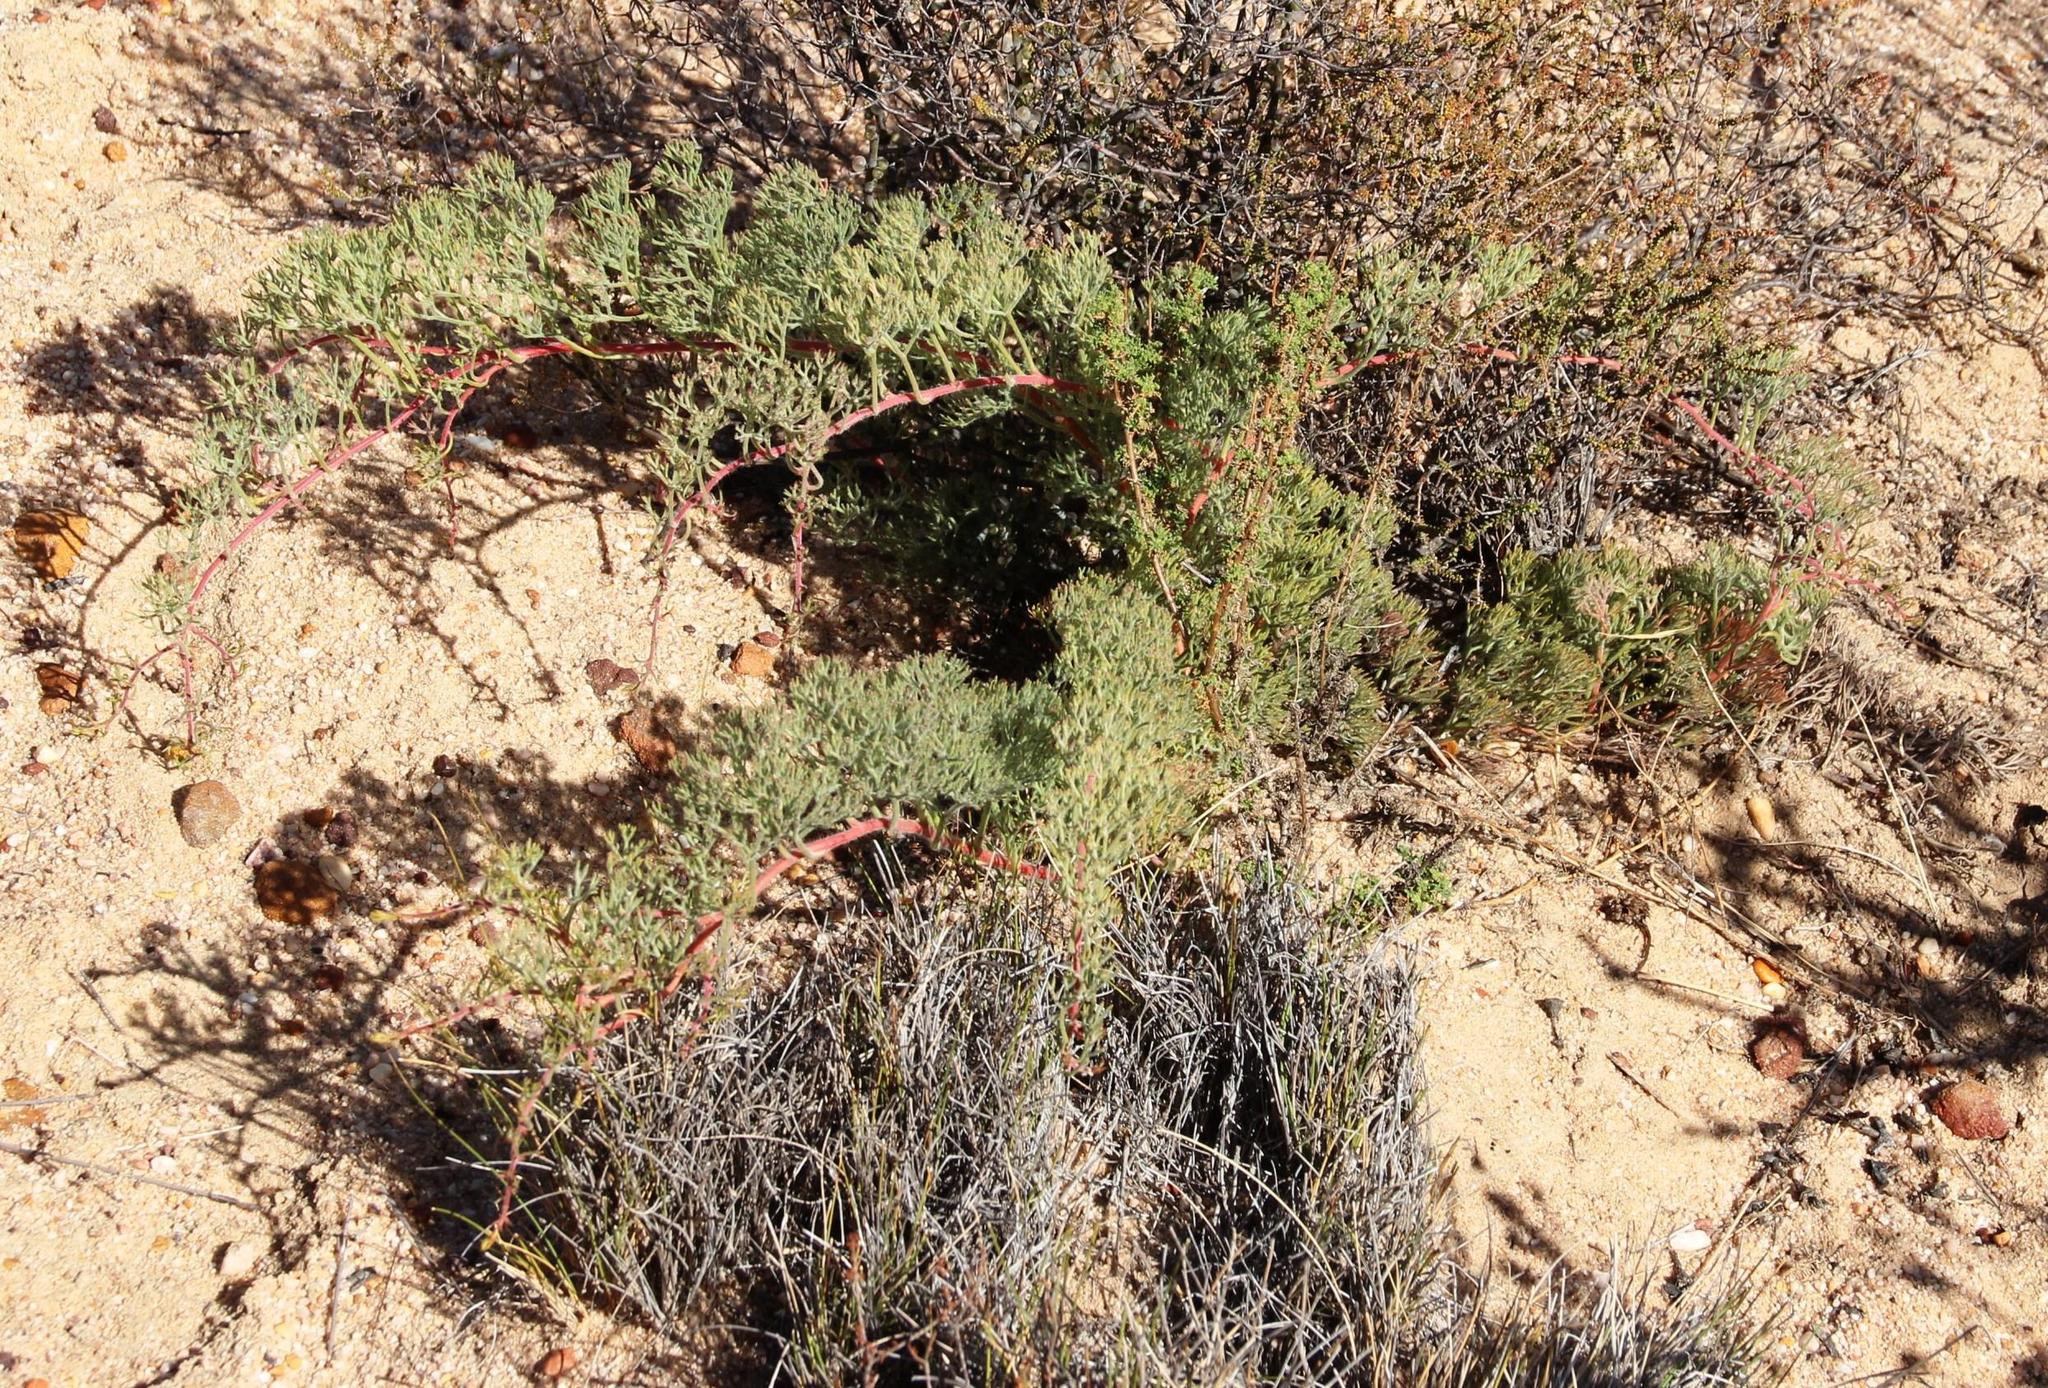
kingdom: Plantae
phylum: Tracheophyta
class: Magnoliopsida
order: Proteales
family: Proteaceae
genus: Serruria
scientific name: Serruria effusa
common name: Candelabra spiderhead
